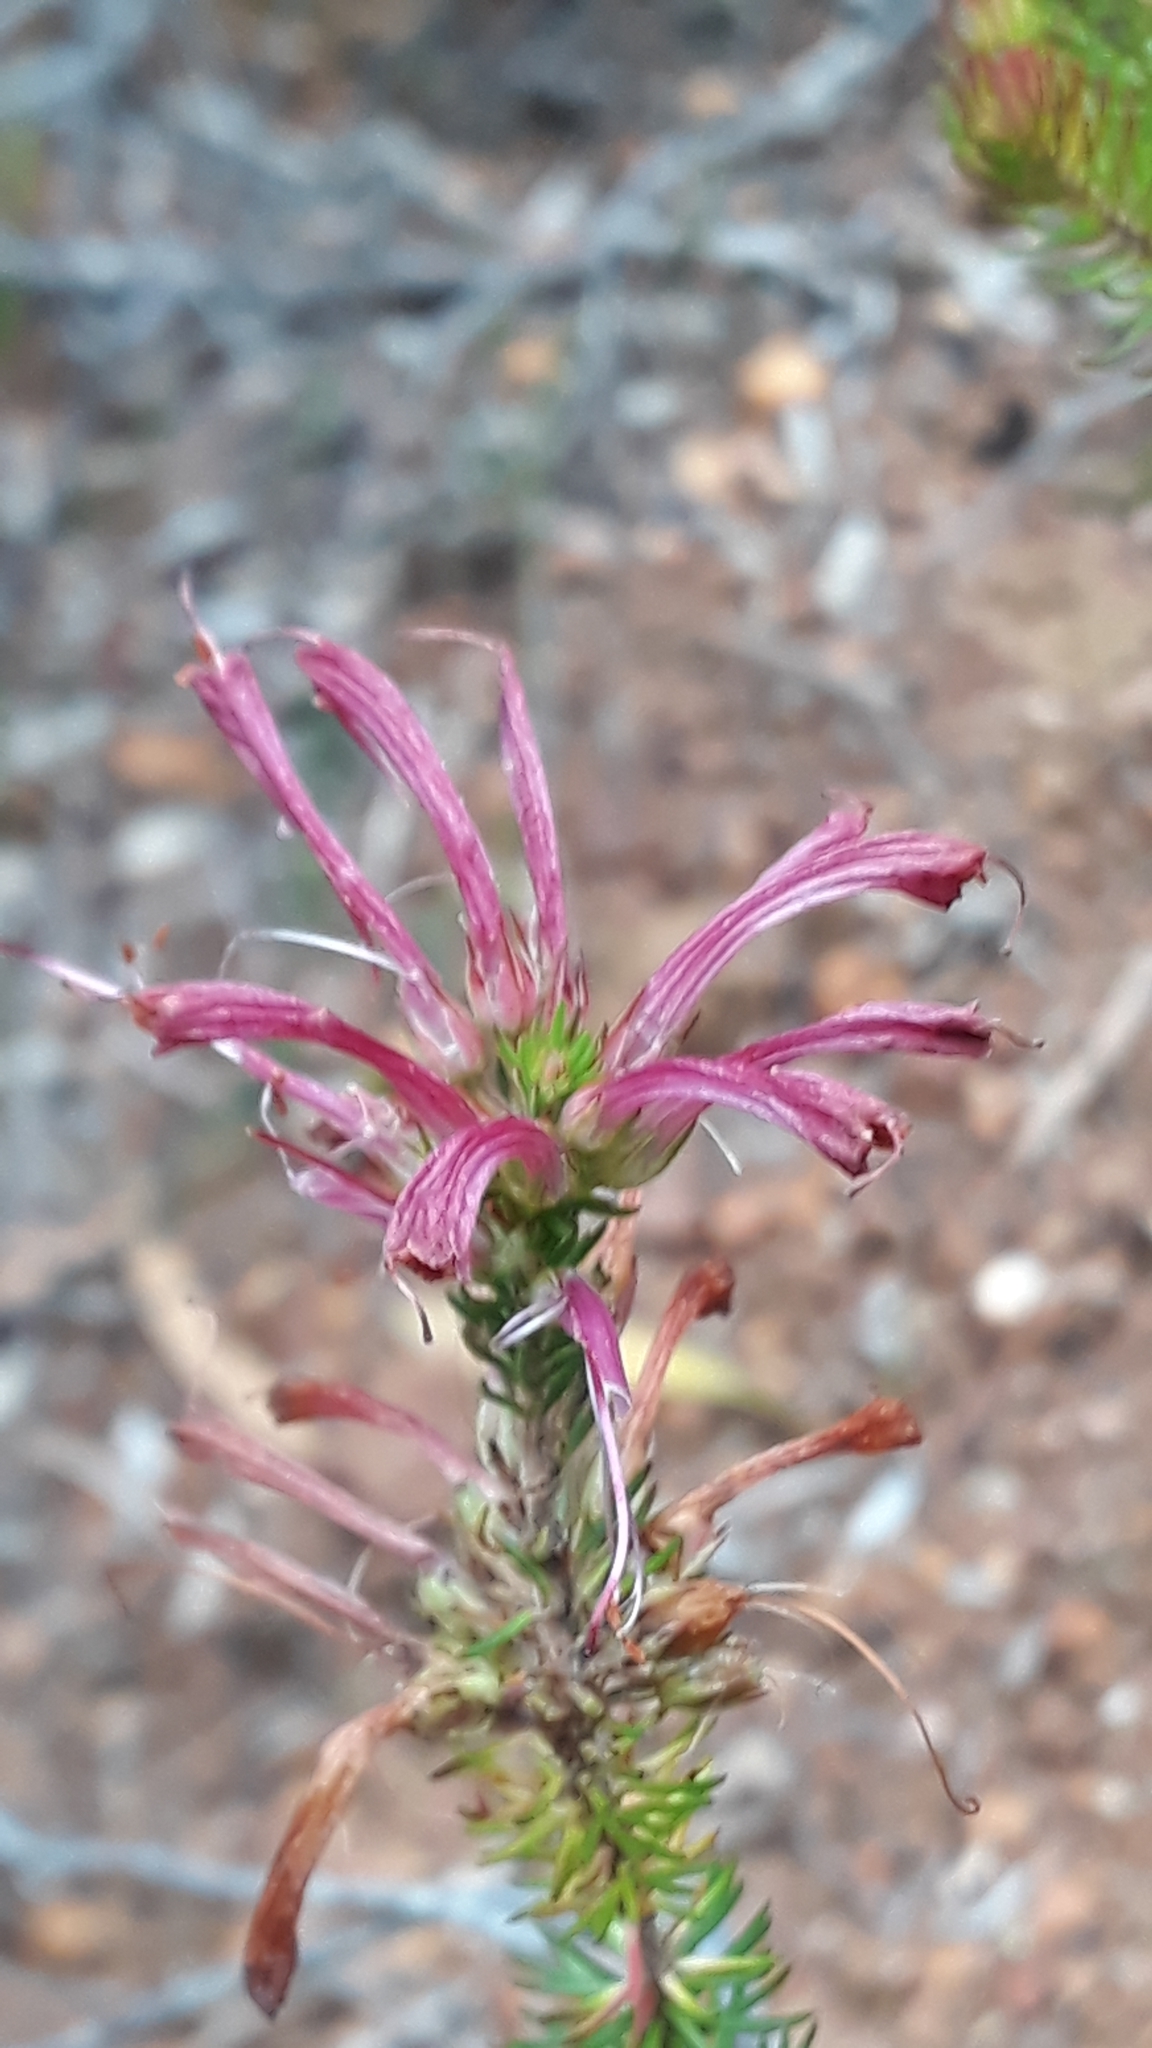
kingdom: Plantae
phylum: Tracheophyta
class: Magnoliopsida
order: Ericales
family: Ericaceae
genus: Erica
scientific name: Erica abietina
